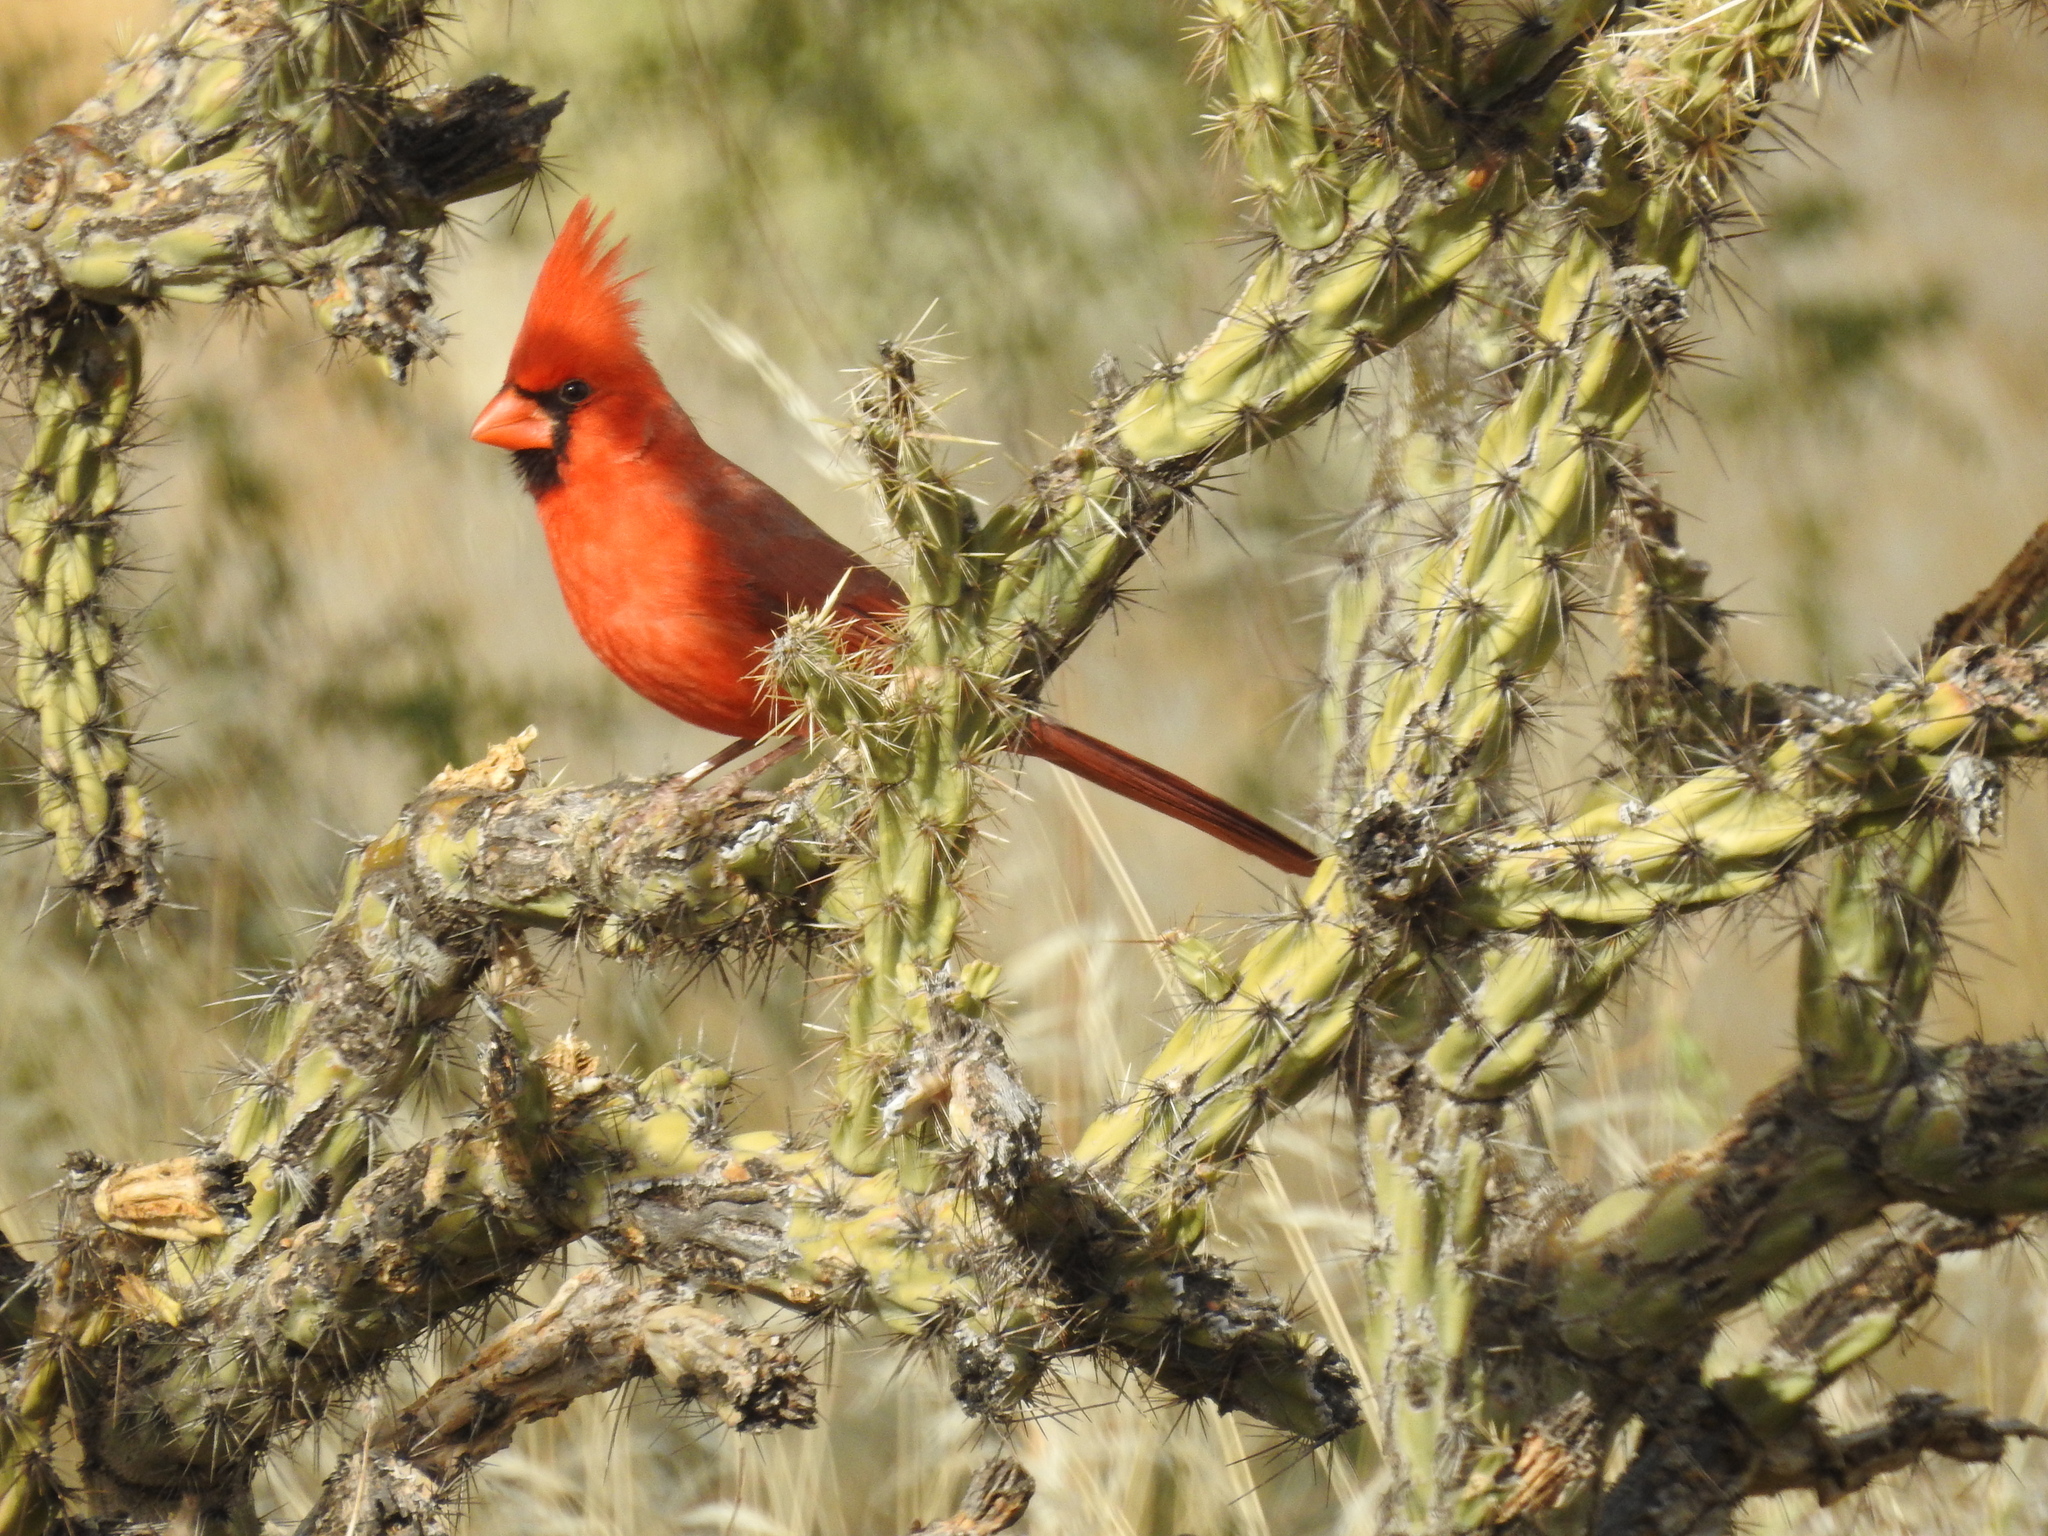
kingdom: Animalia
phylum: Chordata
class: Aves
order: Passeriformes
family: Cardinalidae
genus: Cardinalis
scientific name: Cardinalis cardinalis
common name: Northern cardinal
